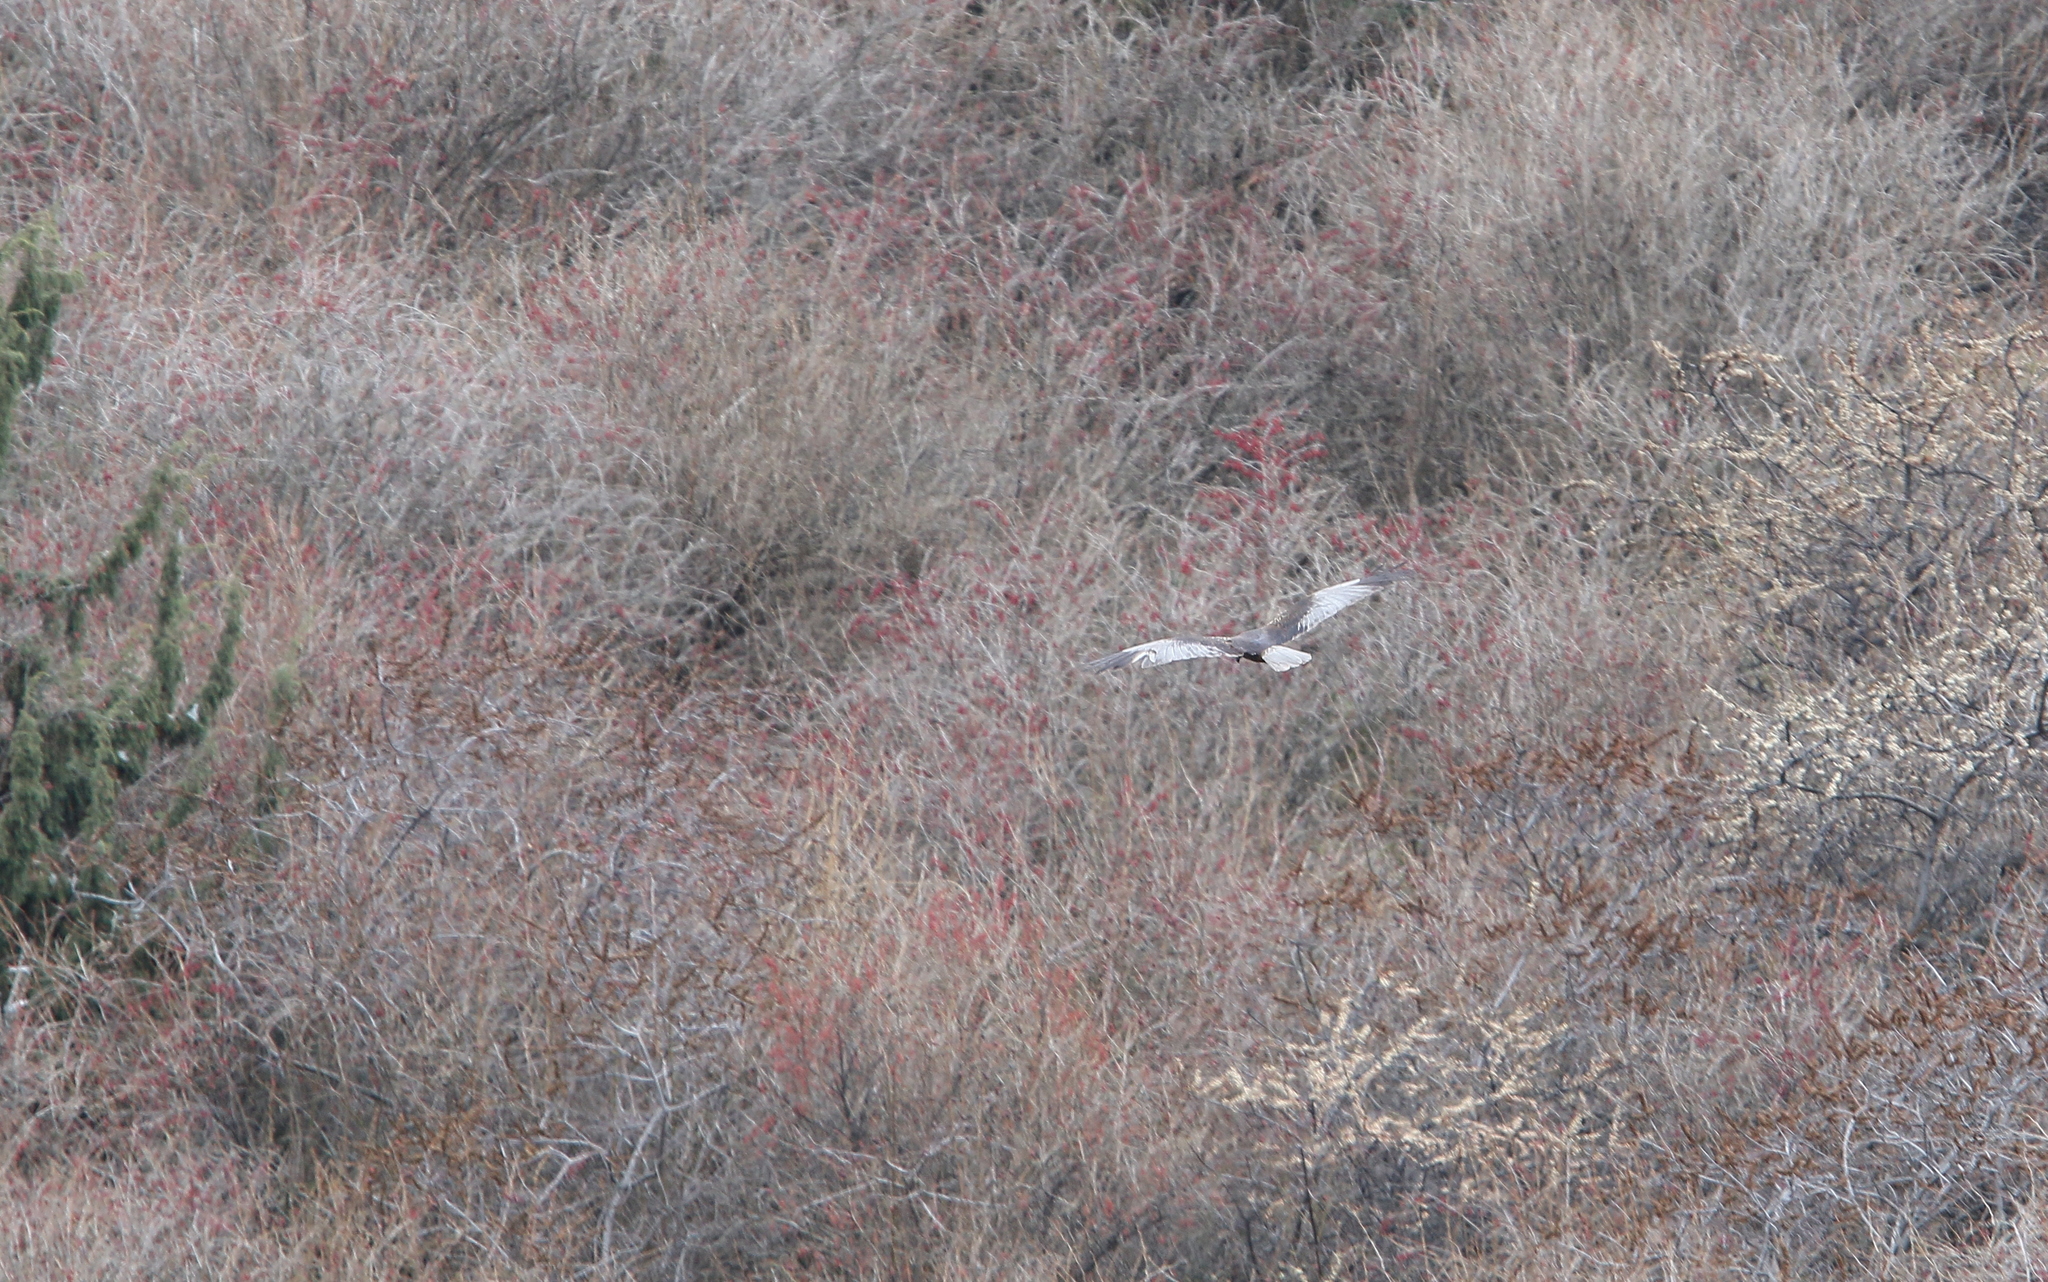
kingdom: Animalia
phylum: Chordata
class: Aves
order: Accipitriformes
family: Accipitridae
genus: Circus
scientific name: Circus aeruginosus
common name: Western marsh harrier
